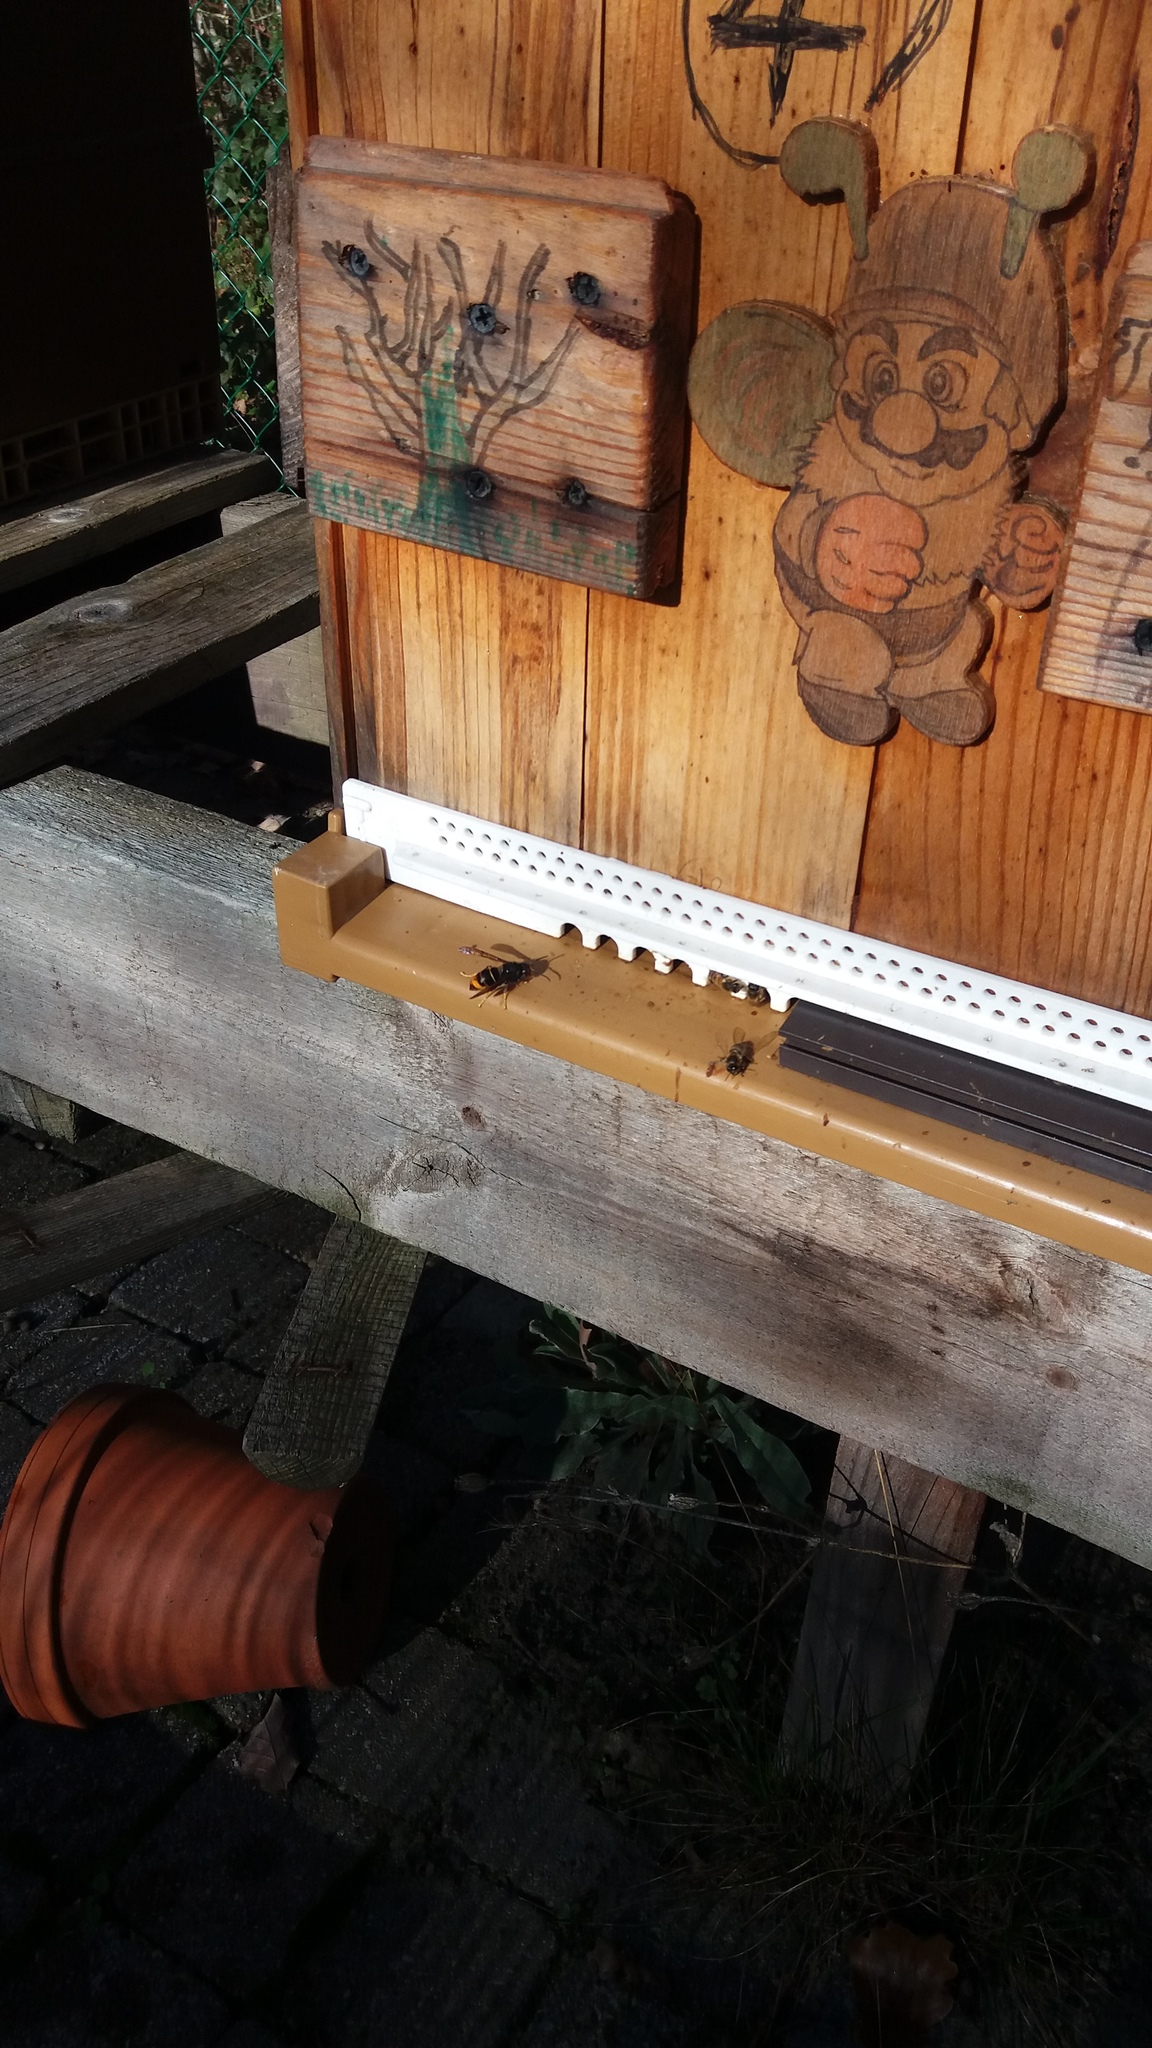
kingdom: Animalia
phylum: Arthropoda
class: Insecta
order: Hymenoptera
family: Vespidae
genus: Vespa
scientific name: Vespa velutina
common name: Asian hornet
